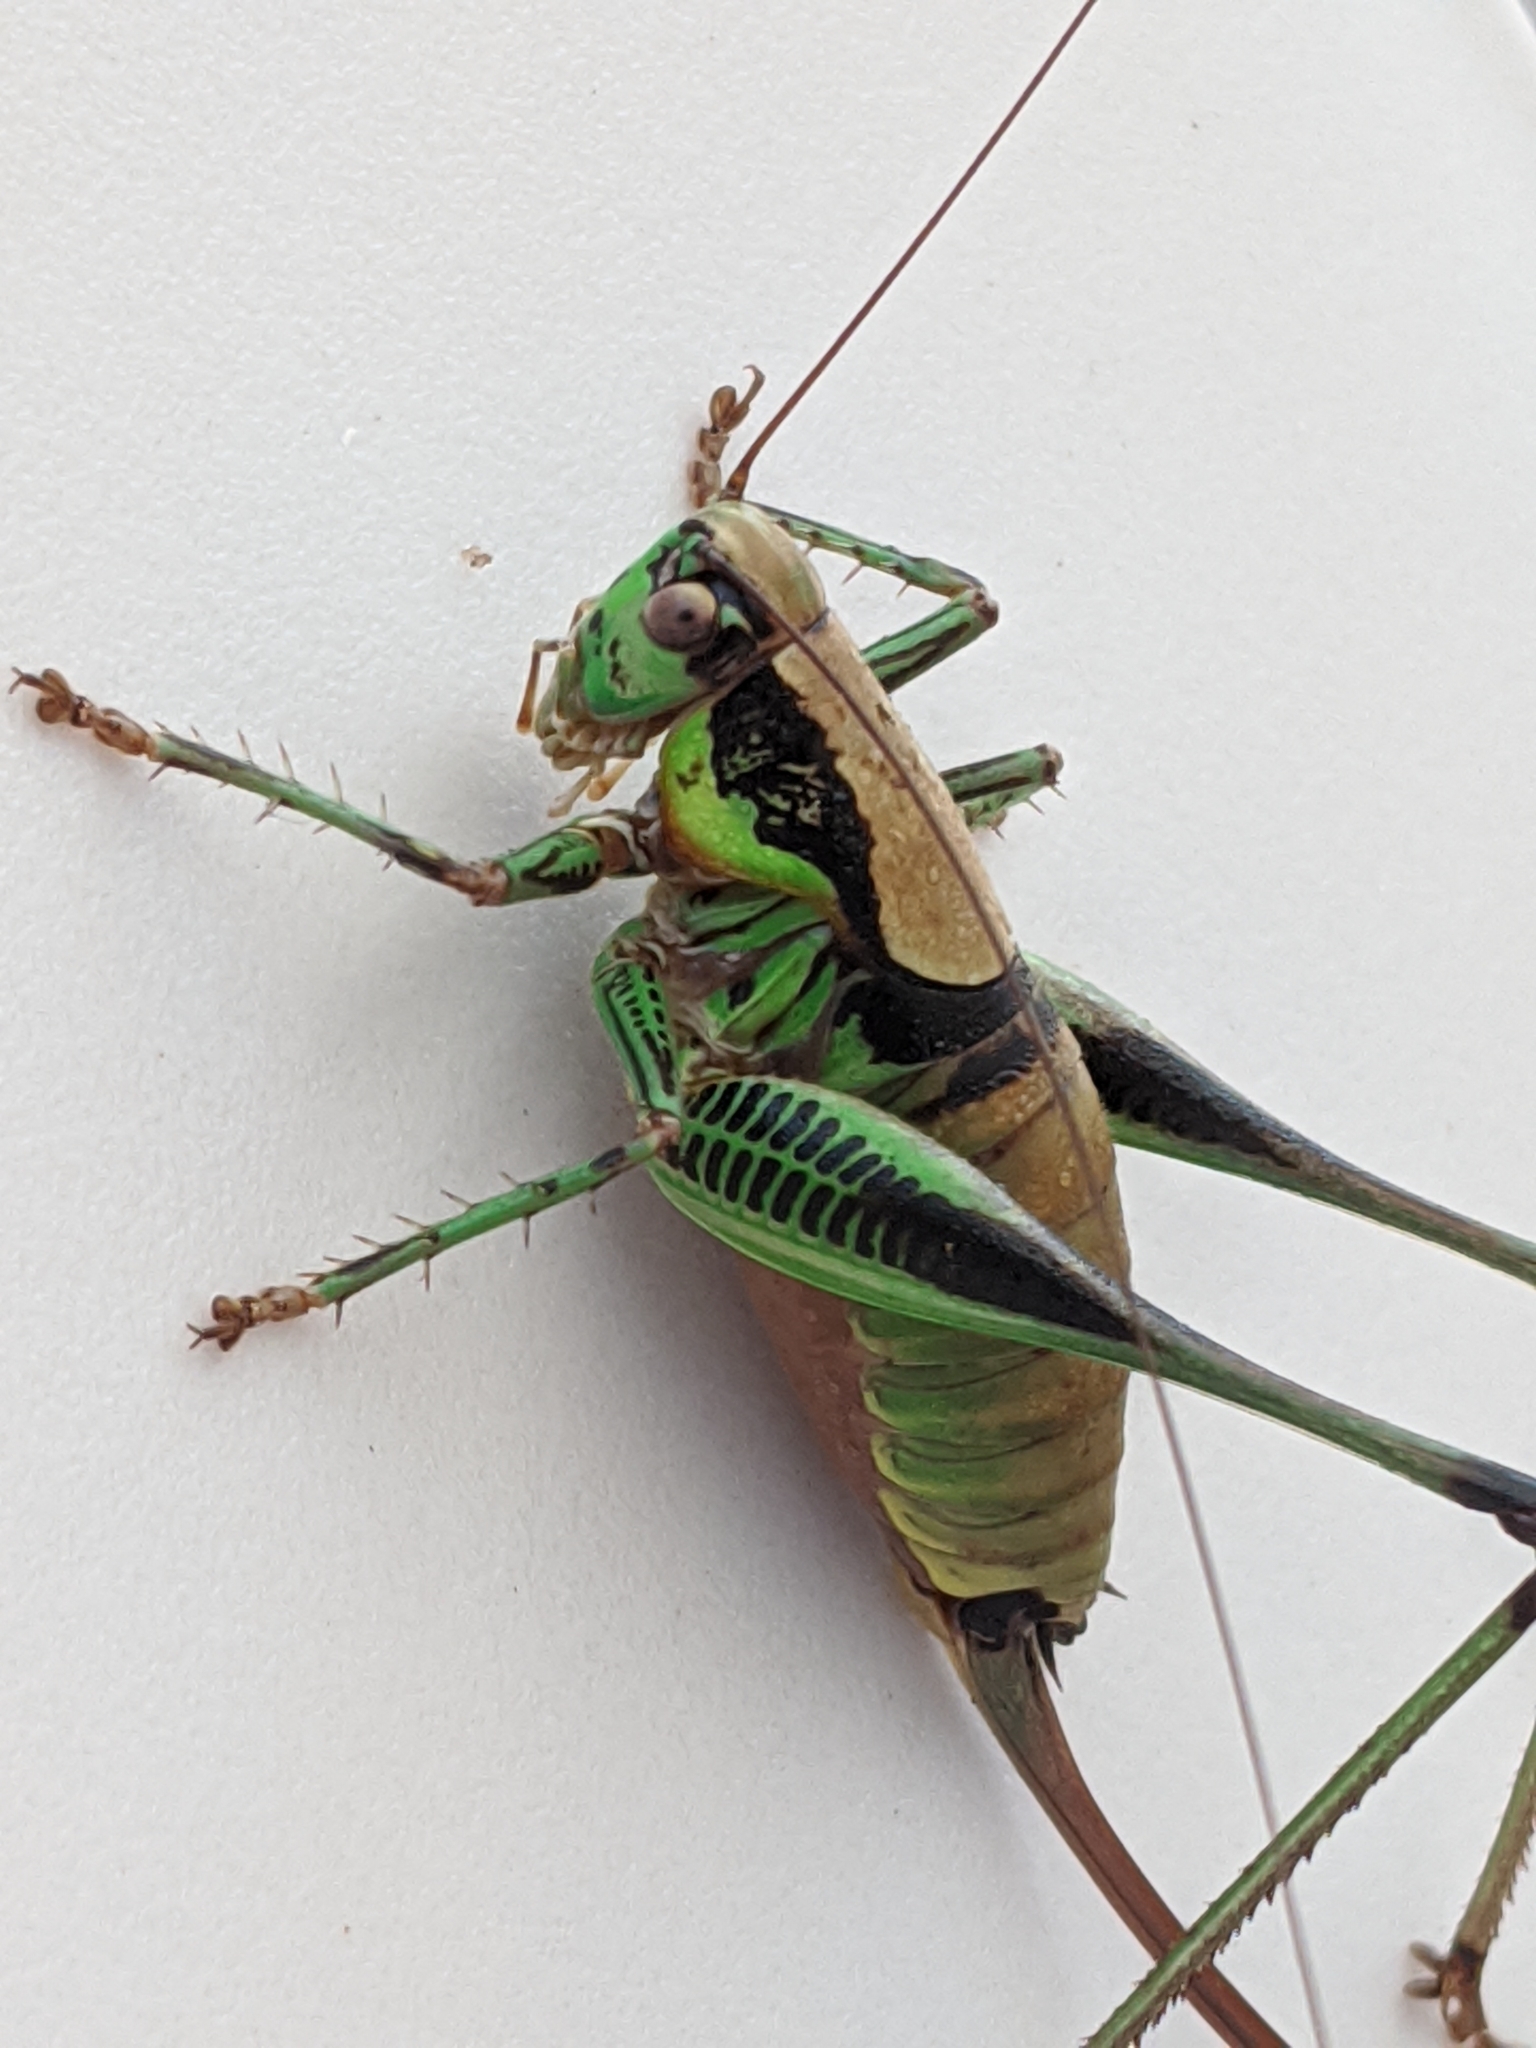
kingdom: Animalia
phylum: Arthropoda
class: Insecta
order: Orthoptera
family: Tettigoniidae
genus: Eupholidoptera
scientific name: Eupholidoptera garganica
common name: Gargano marbled bush-cricket
